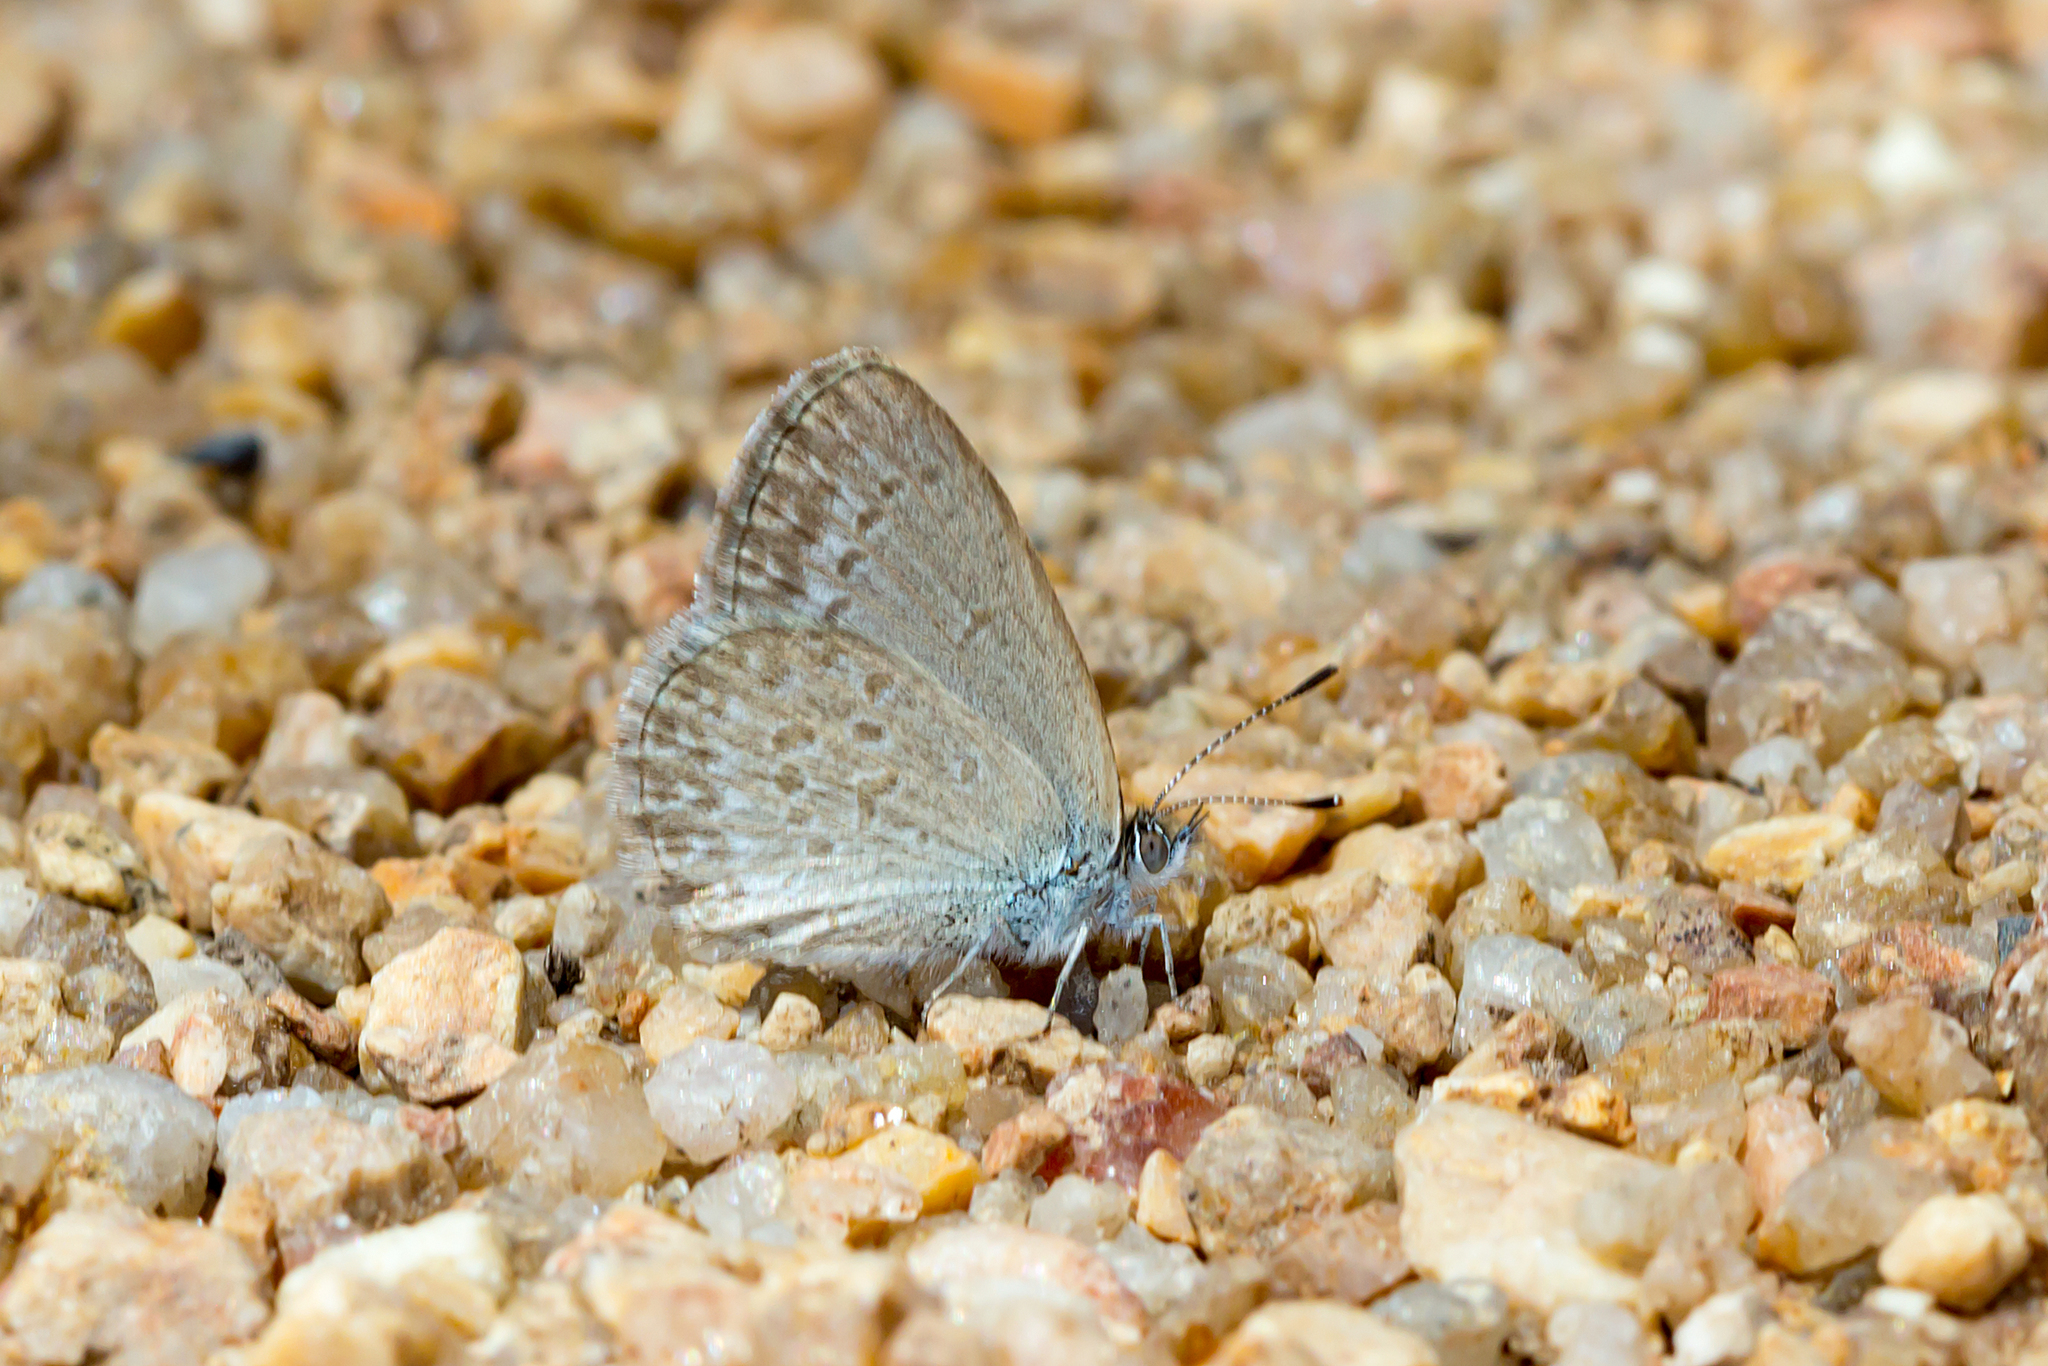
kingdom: Animalia
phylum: Arthropoda
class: Insecta
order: Lepidoptera
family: Lycaenidae
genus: Zizina
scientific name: Zizina labradus
